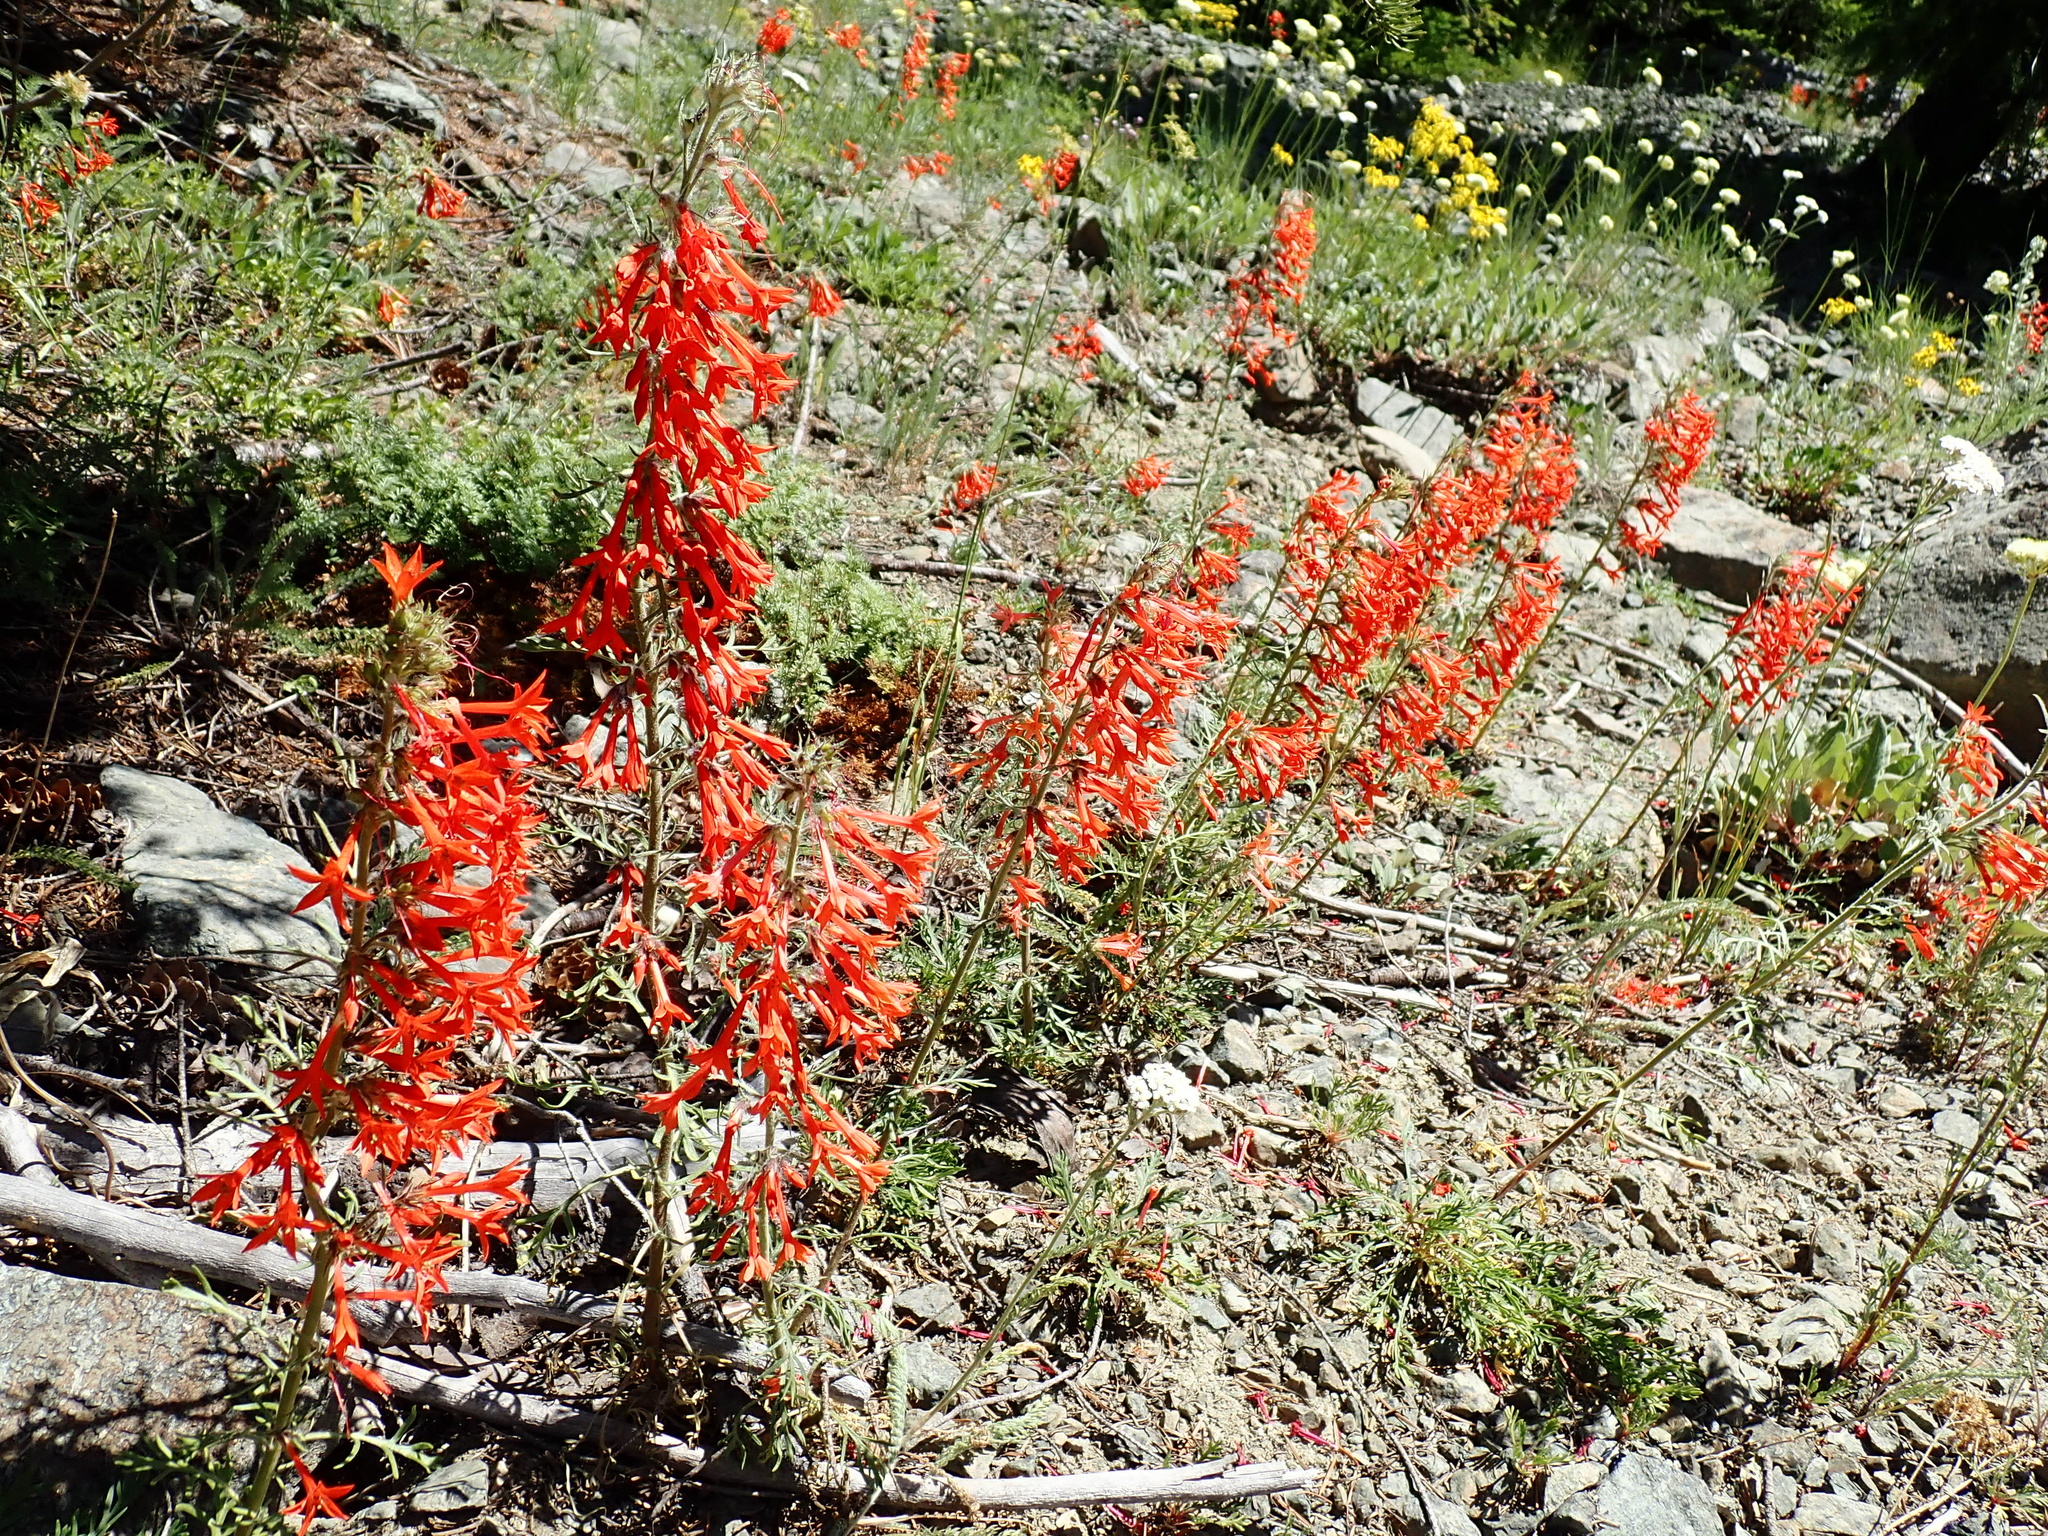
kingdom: Plantae
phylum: Tracheophyta
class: Magnoliopsida
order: Ericales
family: Polemoniaceae
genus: Ipomopsis
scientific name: Ipomopsis aggregata
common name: Scarlet gilia
